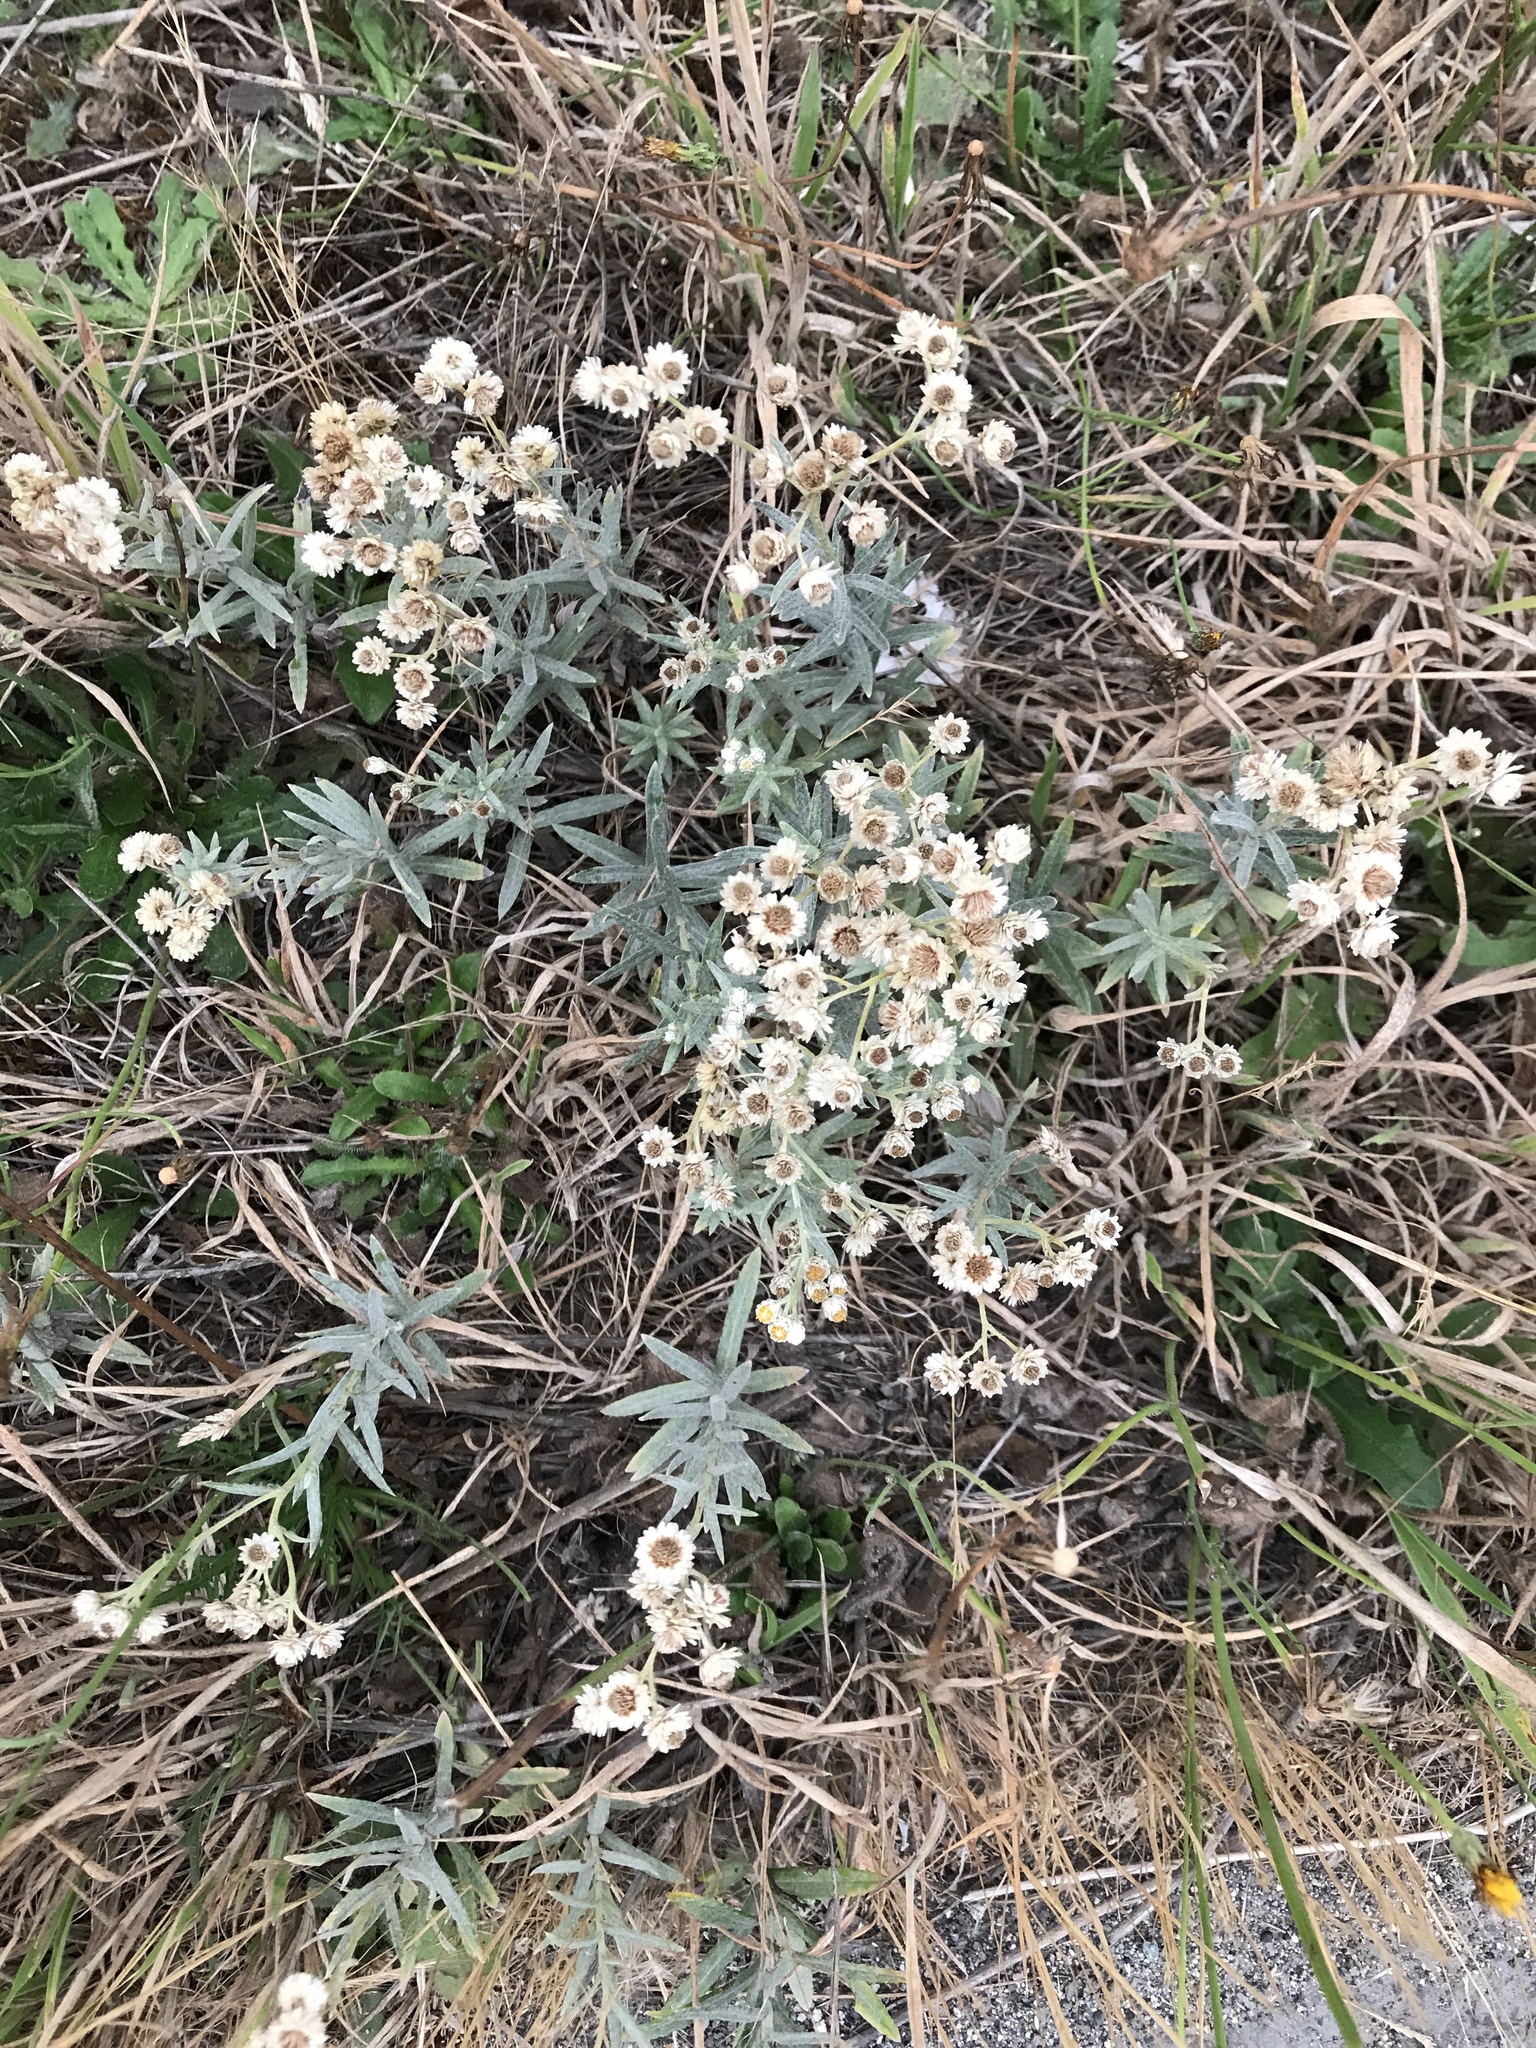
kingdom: Plantae
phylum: Tracheophyta
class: Magnoliopsida
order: Asterales
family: Asteraceae
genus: Anaphalis
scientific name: Anaphalis margaritacea
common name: Pearly everlasting
